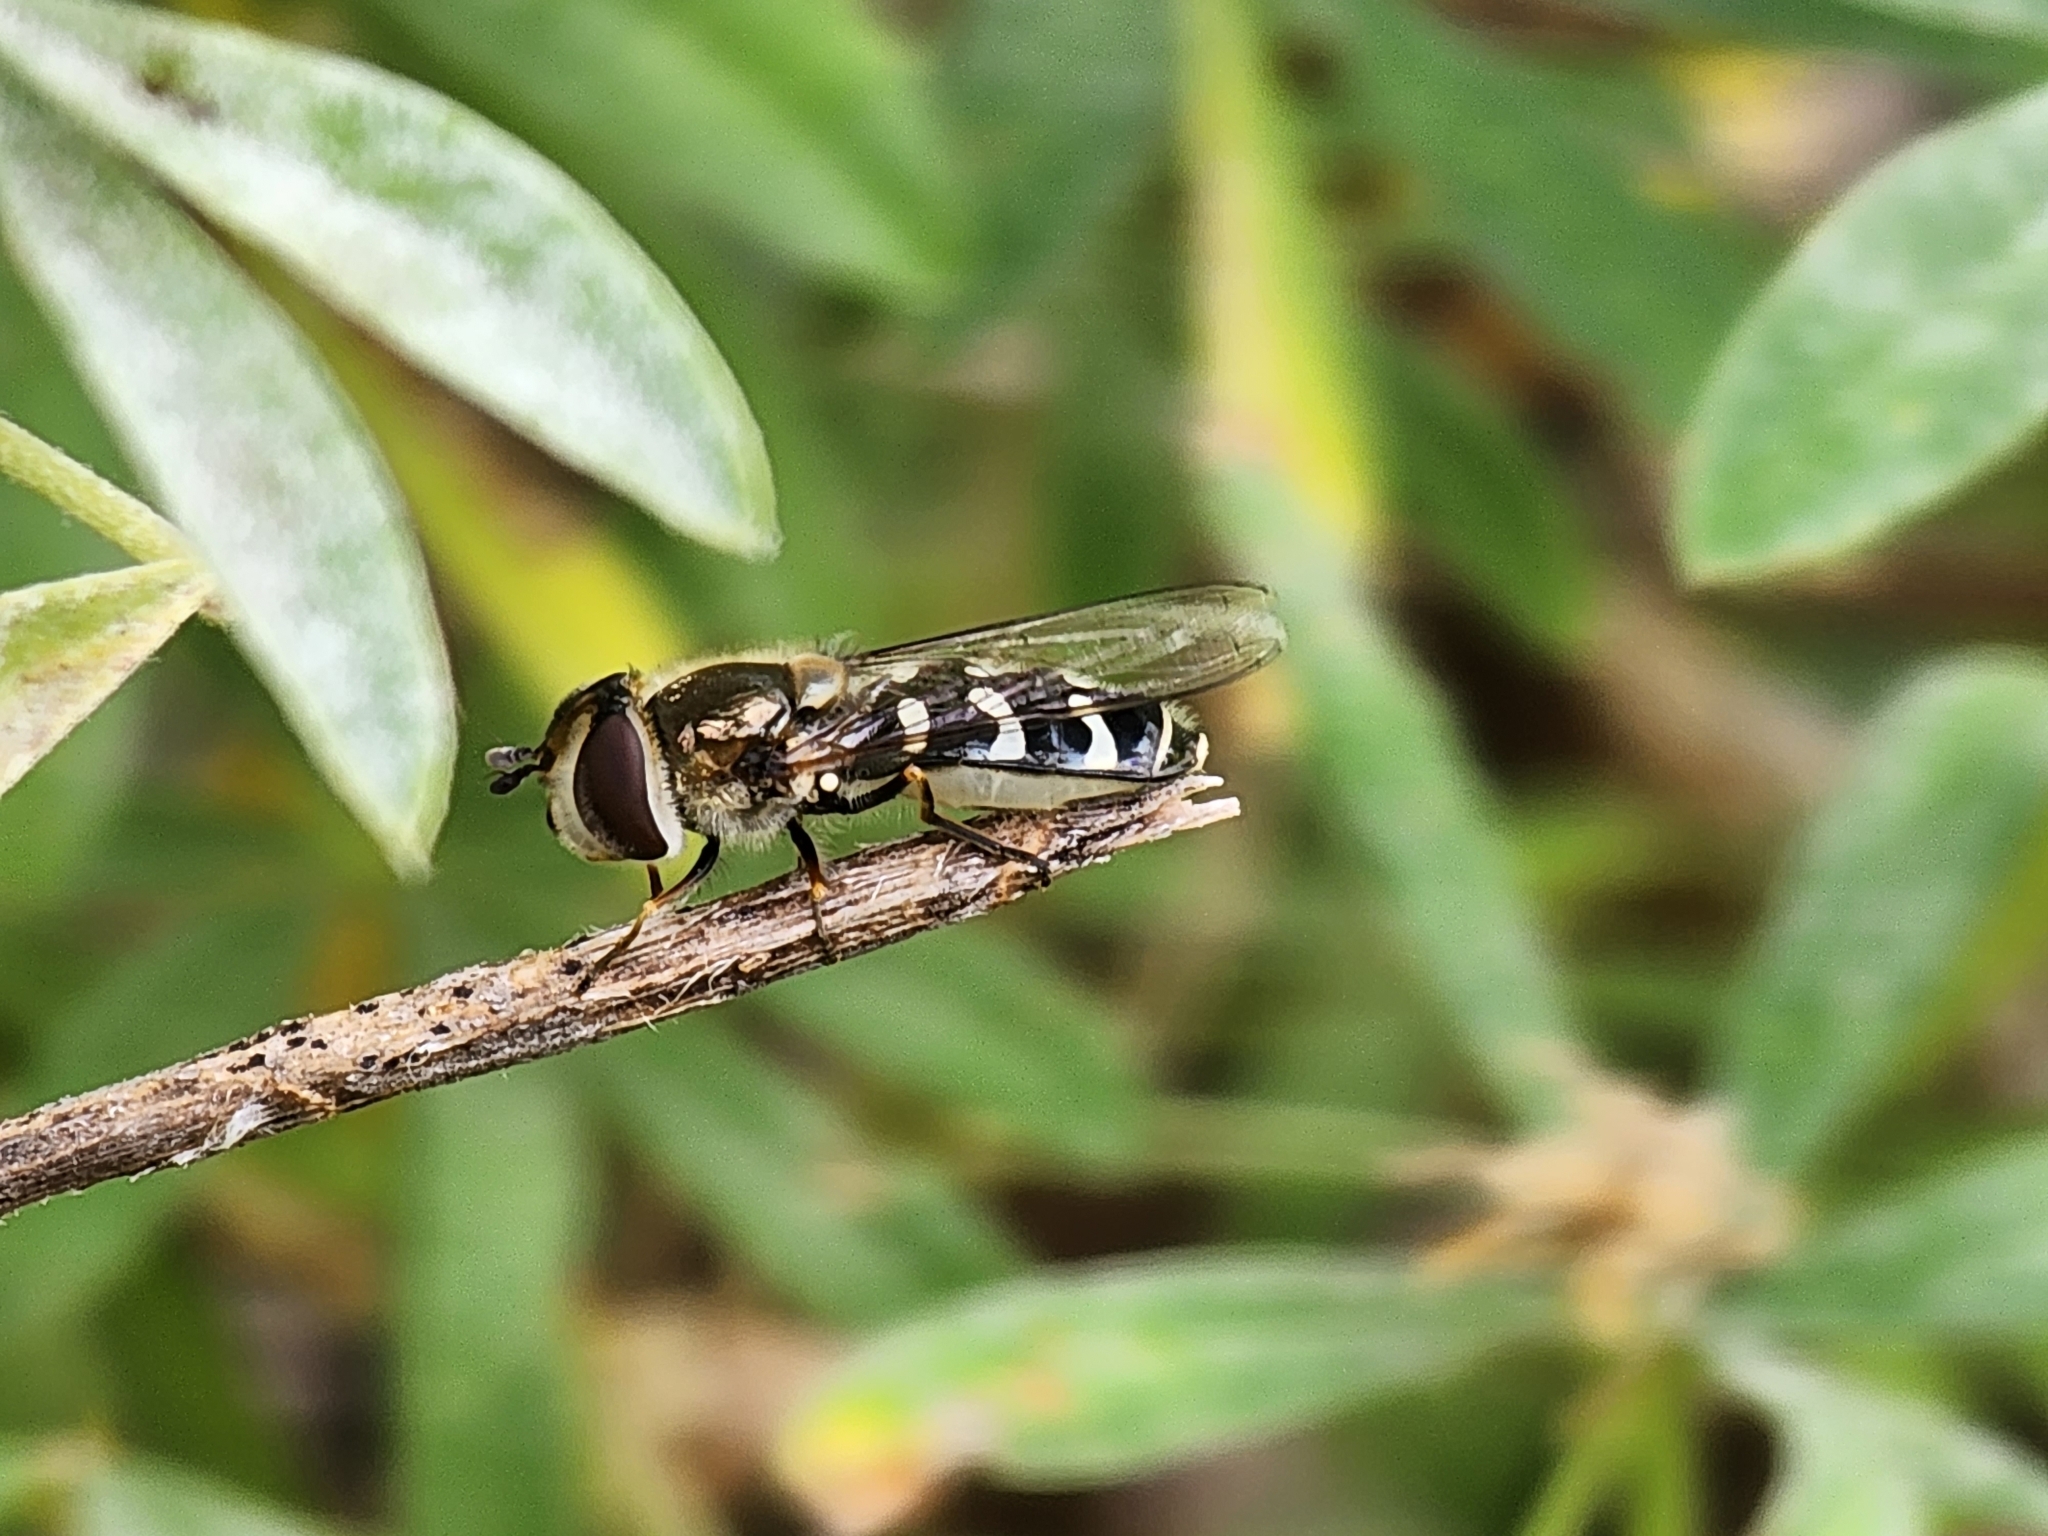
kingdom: Animalia
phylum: Arthropoda
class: Insecta
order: Diptera
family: Syrphidae
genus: Scaeva
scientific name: Scaeva affinis
